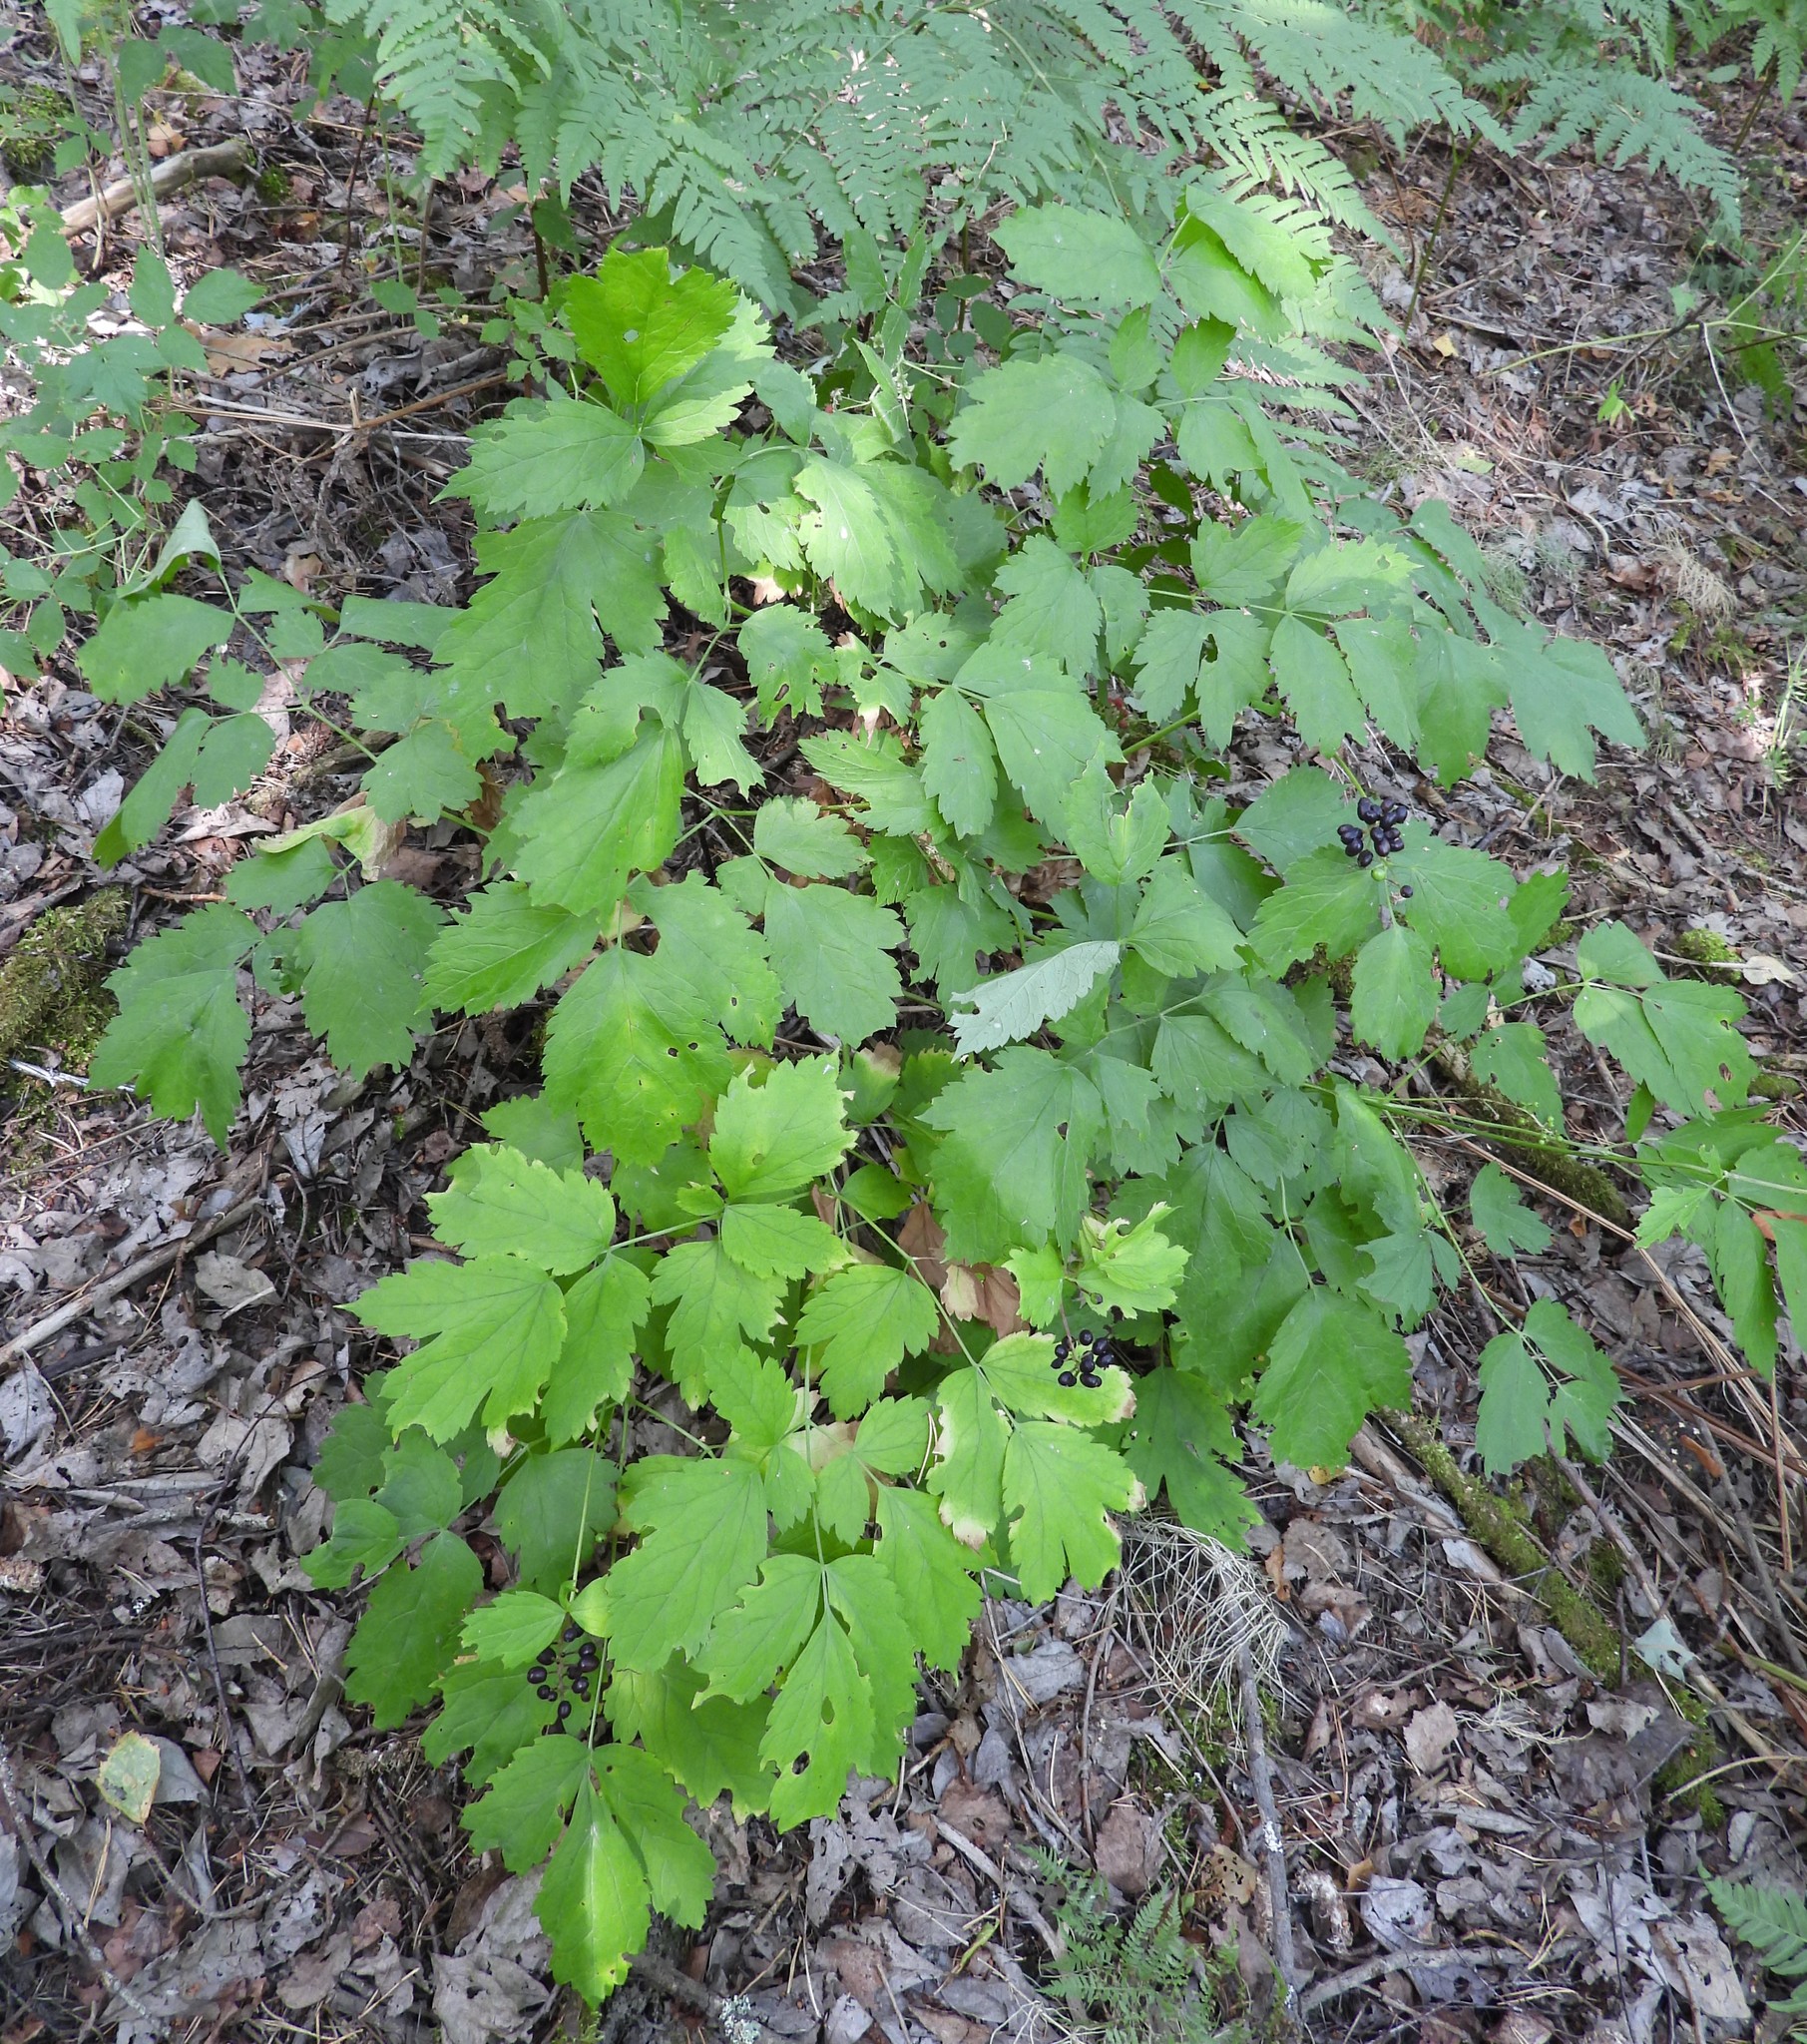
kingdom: Plantae
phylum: Tracheophyta
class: Magnoliopsida
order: Ranunculales
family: Ranunculaceae
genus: Actaea
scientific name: Actaea spicata
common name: Baneberry
